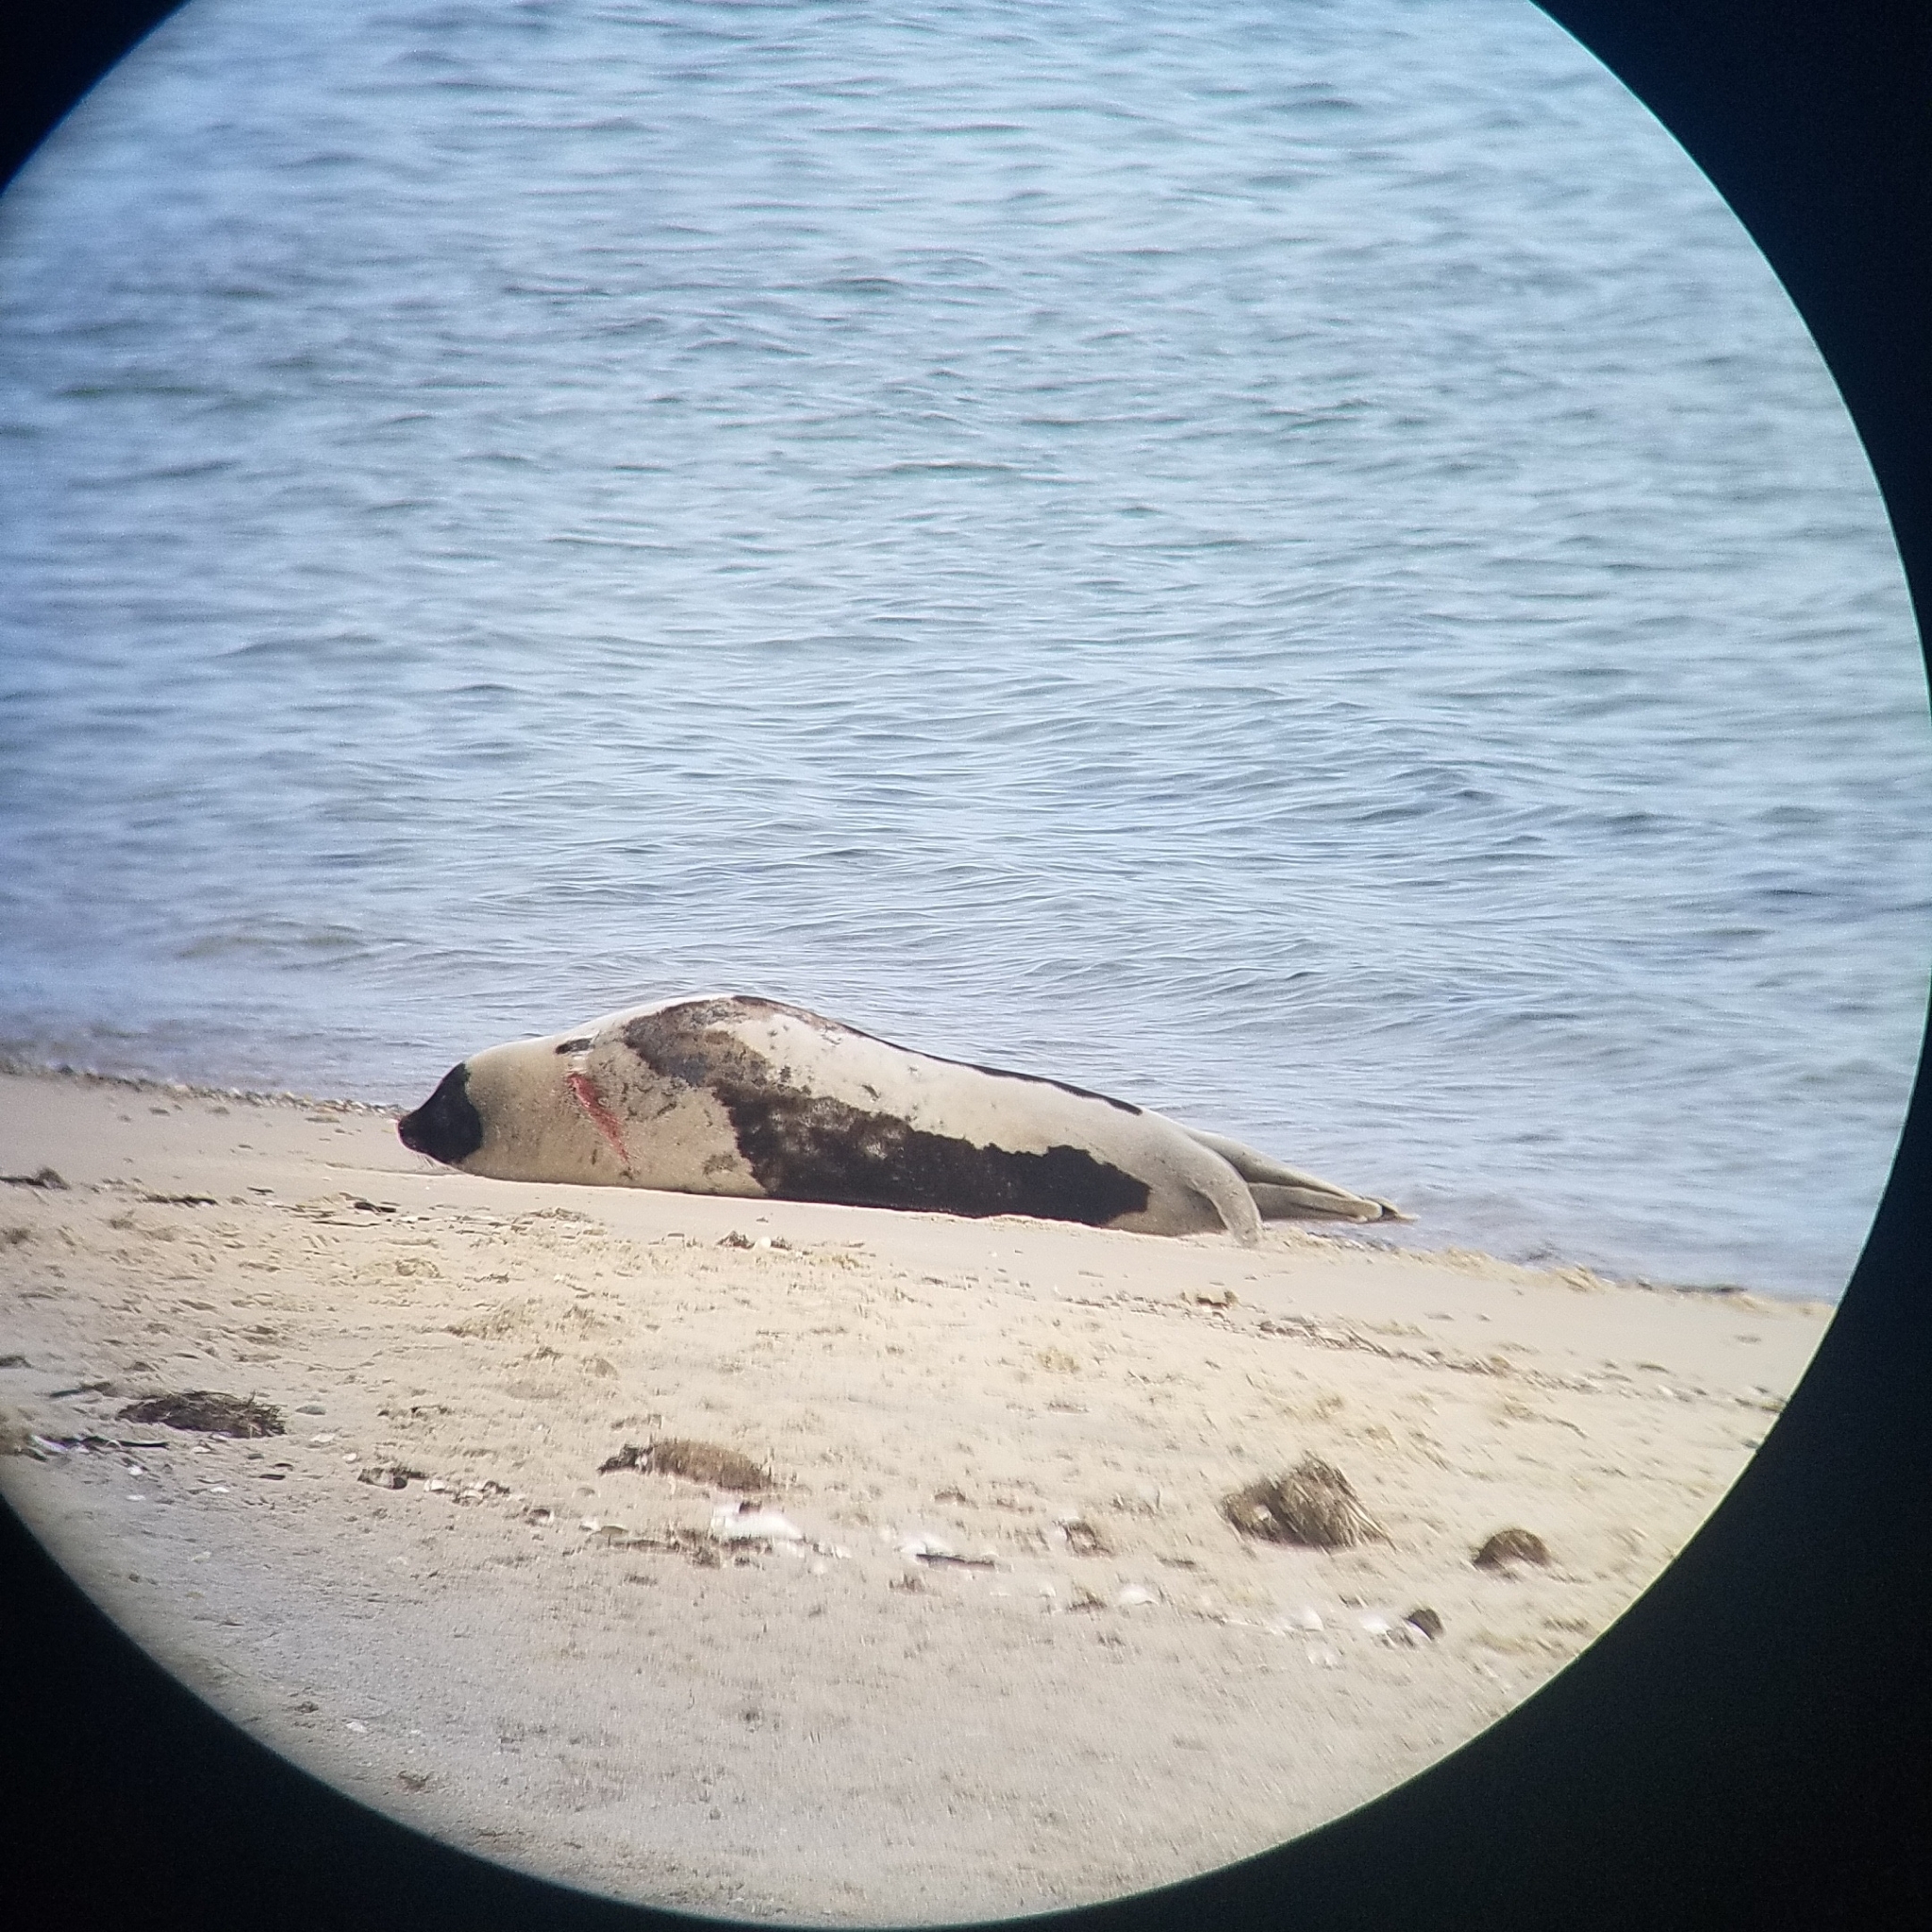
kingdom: Animalia
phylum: Chordata
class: Mammalia
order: Carnivora
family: Phocidae
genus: Pagophilus
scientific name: Pagophilus groenlandicus
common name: Harp seal
